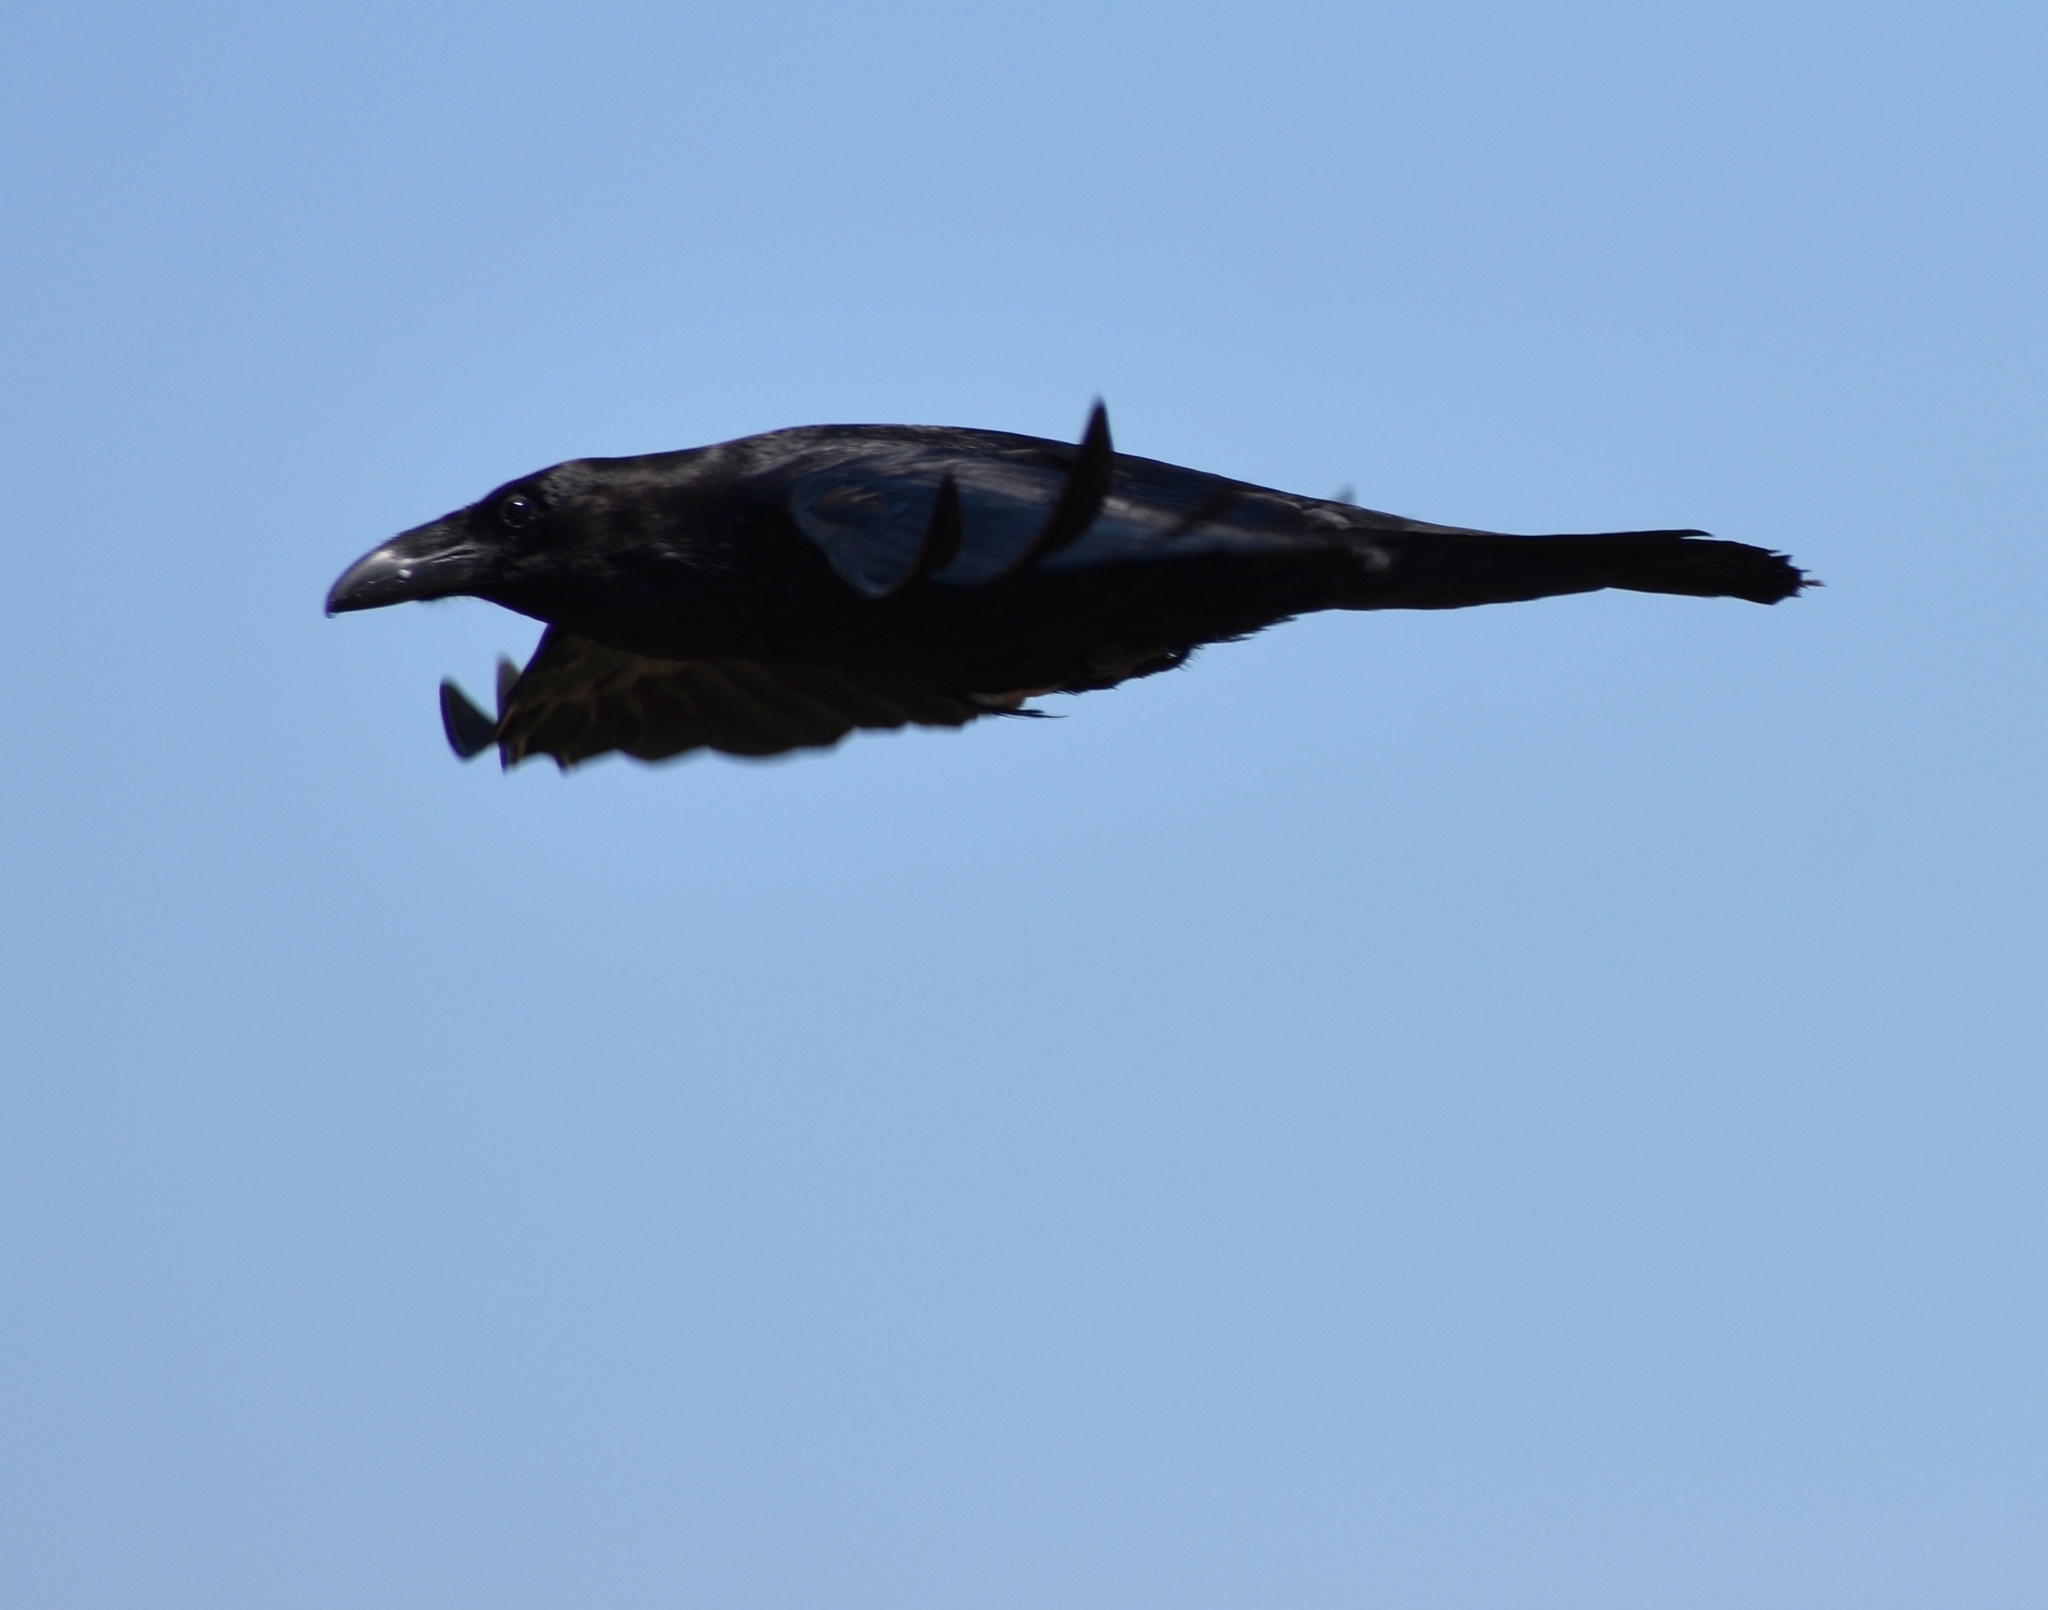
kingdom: Animalia
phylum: Chordata
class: Aves
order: Passeriformes
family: Corvidae
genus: Corvus
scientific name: Corvus corax
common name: Common raven
